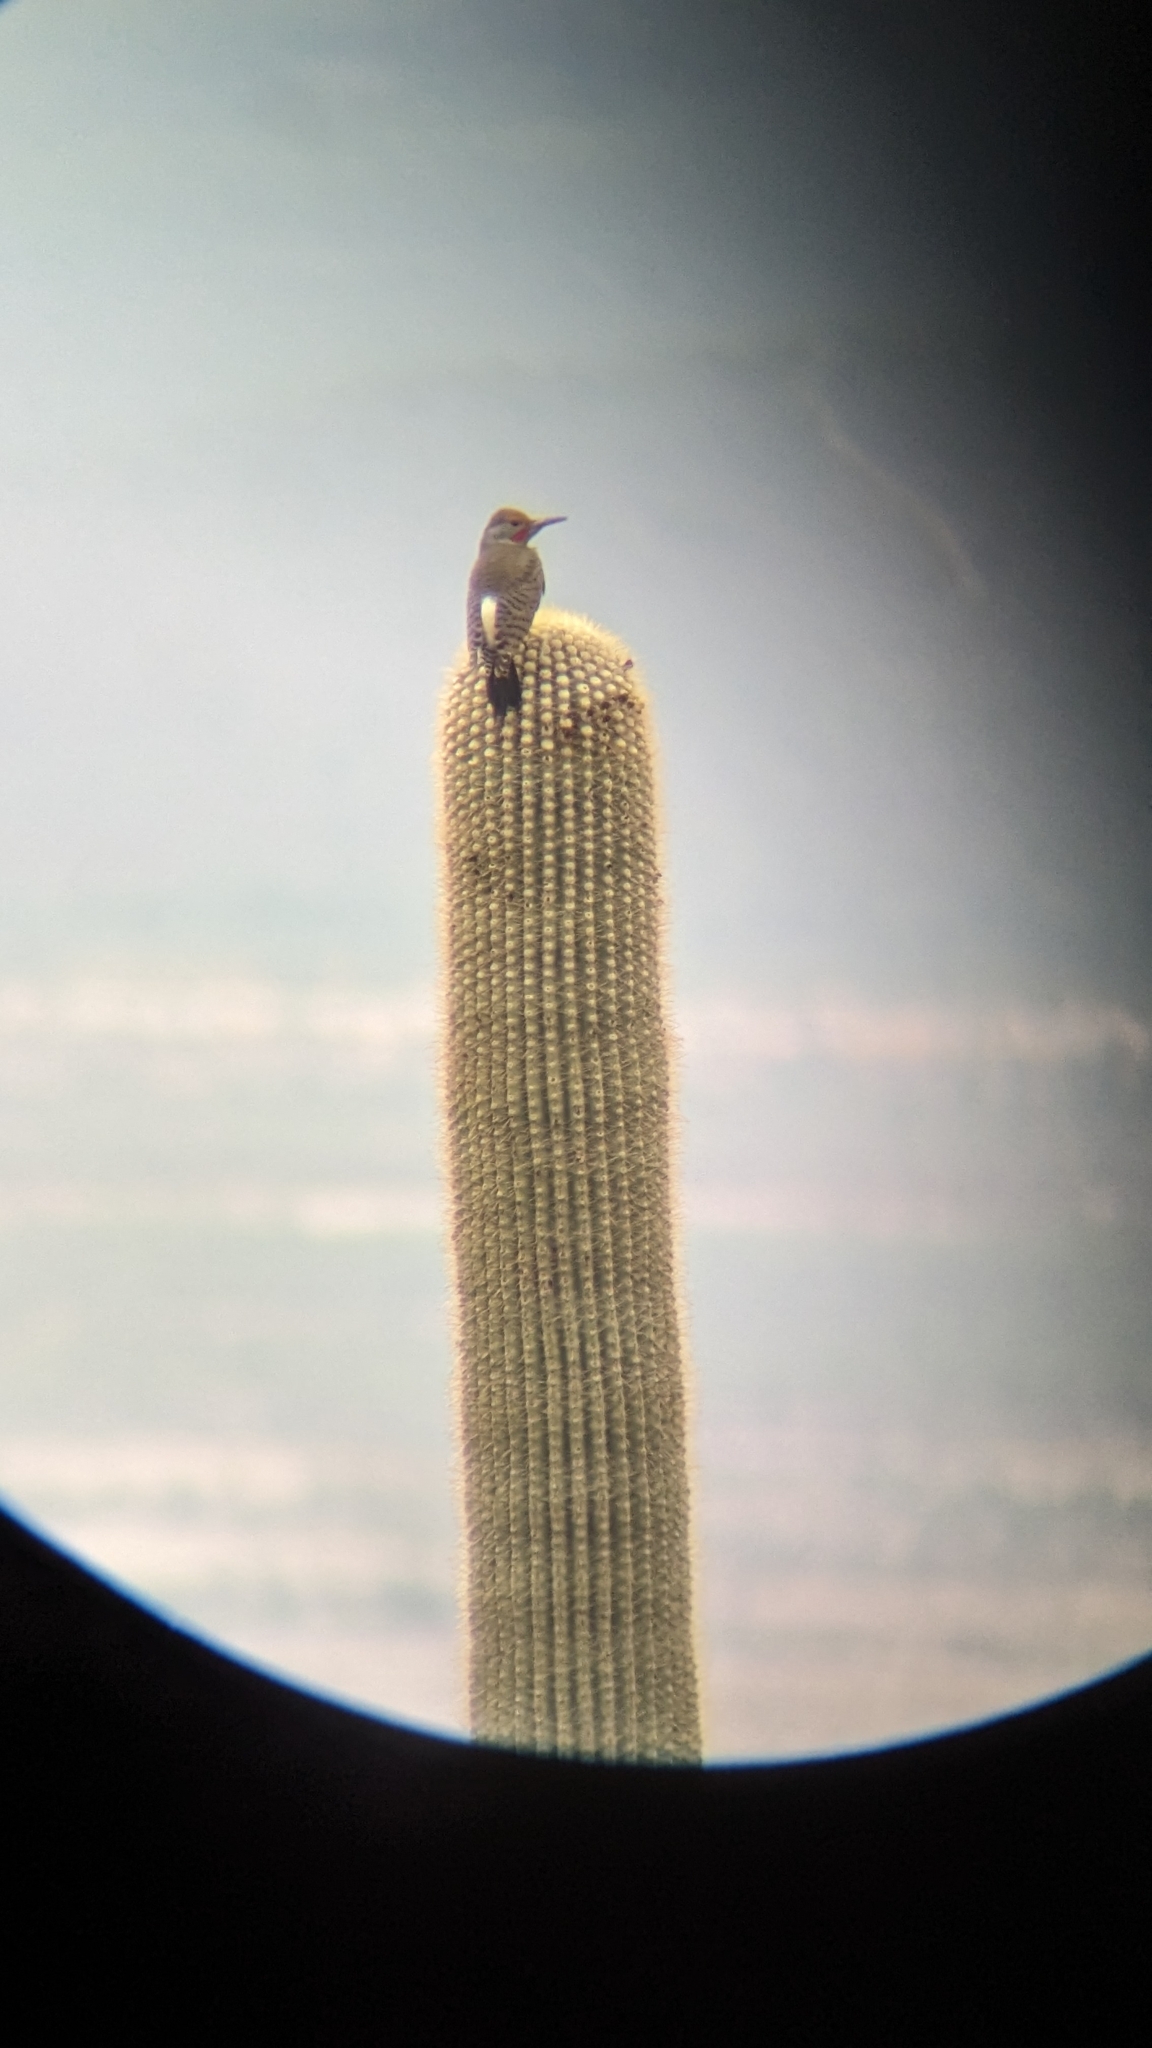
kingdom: Animalia
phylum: Chordata
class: Aves
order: Piciformes
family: Picidae
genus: Colaptes
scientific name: Colaptes chrysoides
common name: Gilded flicker
